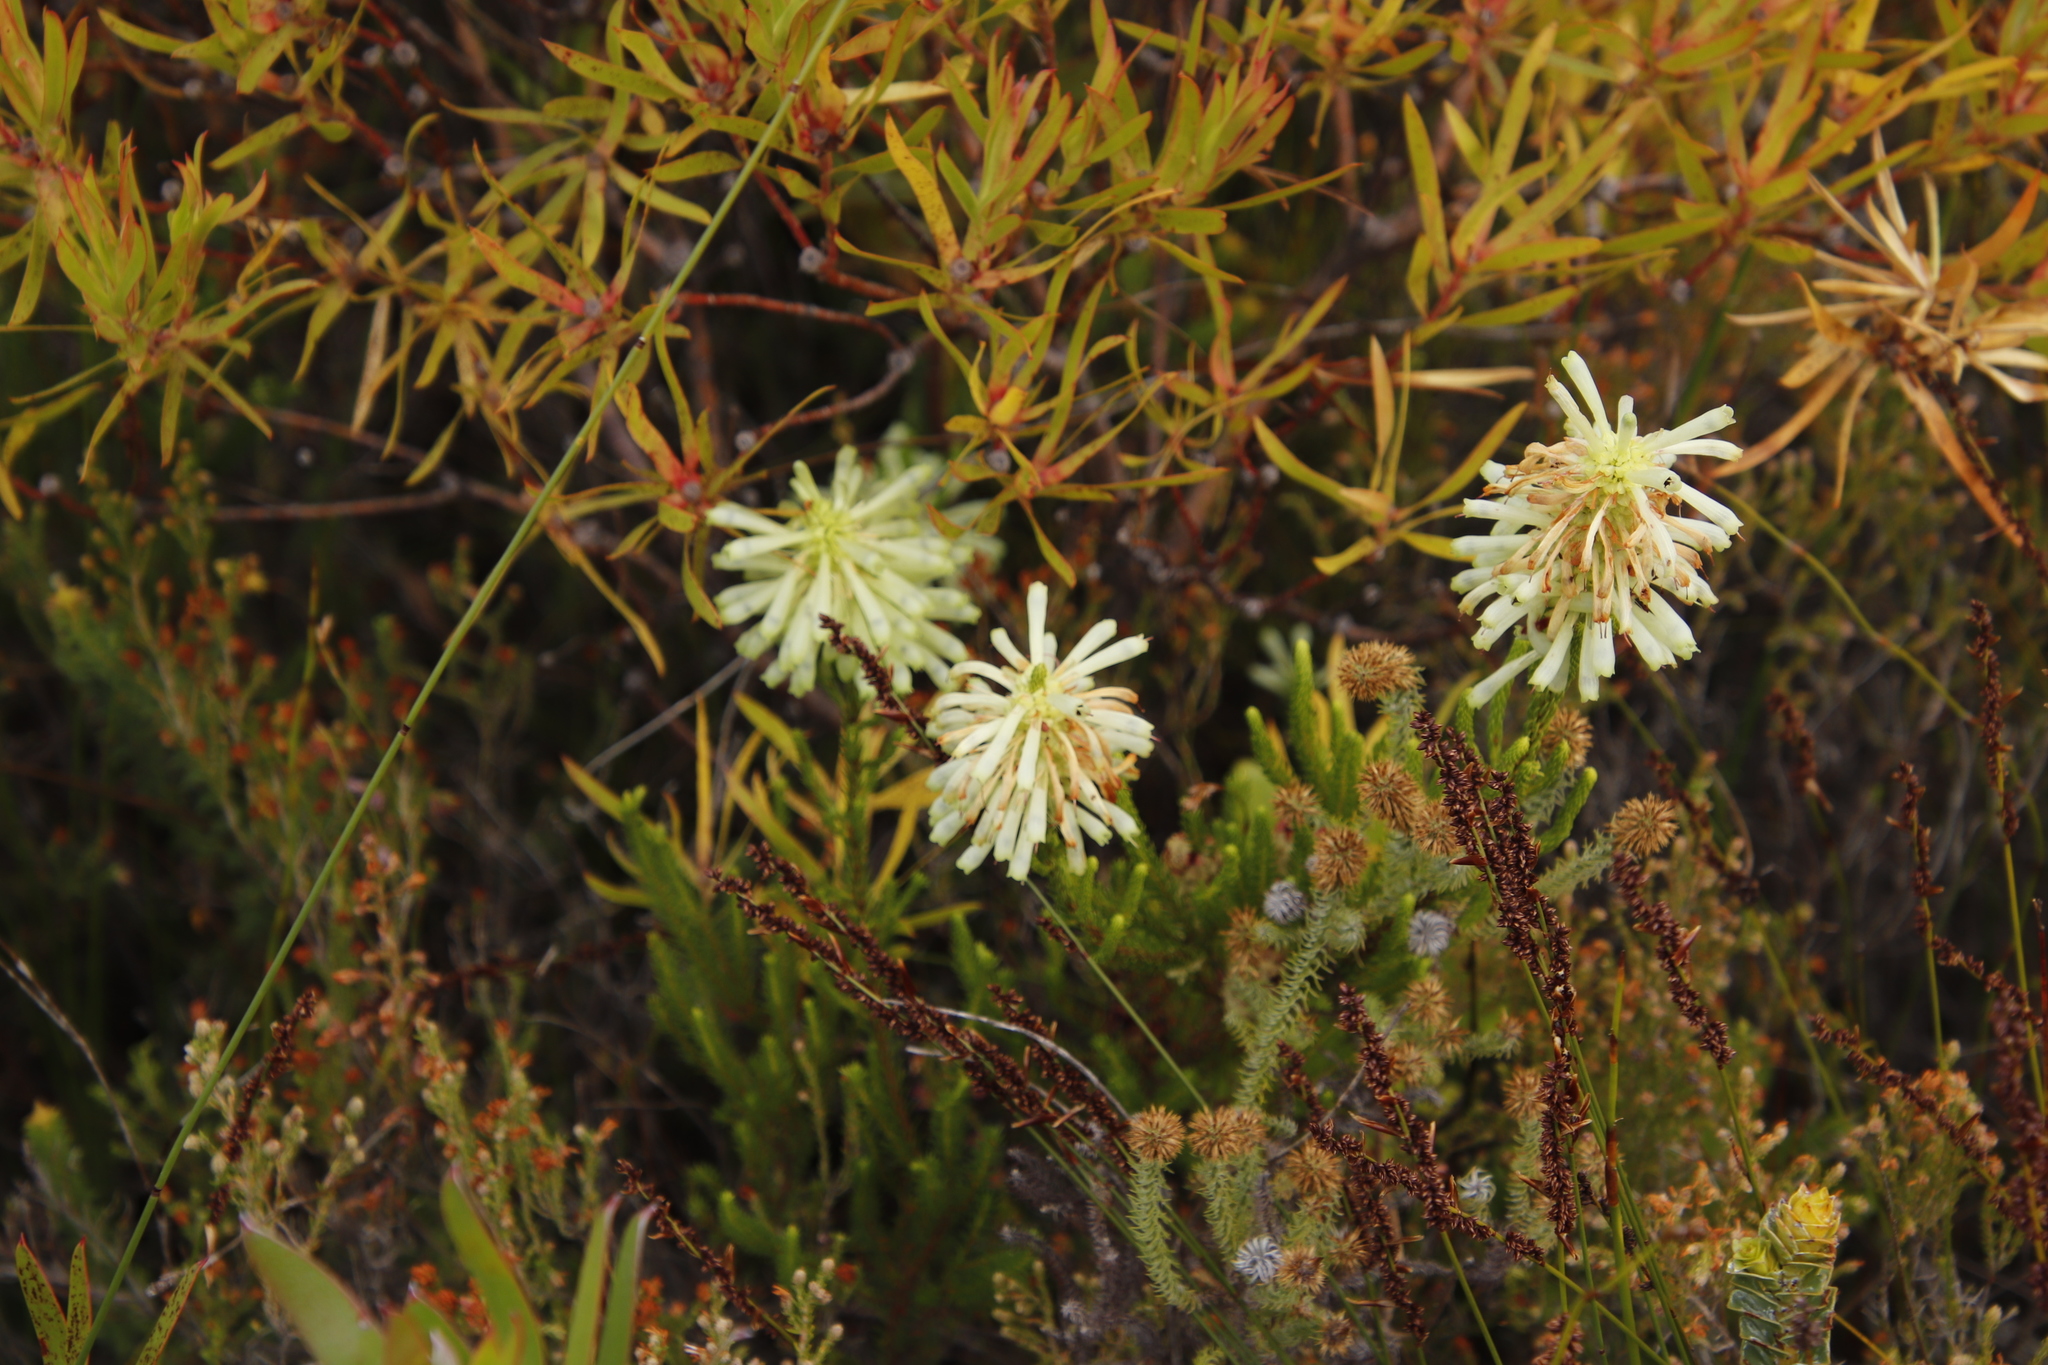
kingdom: Plantae
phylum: Tracheophyta
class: Magnoliopsida
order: Ericales
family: Ericaceae
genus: Erica
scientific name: Erica sessiliflora
